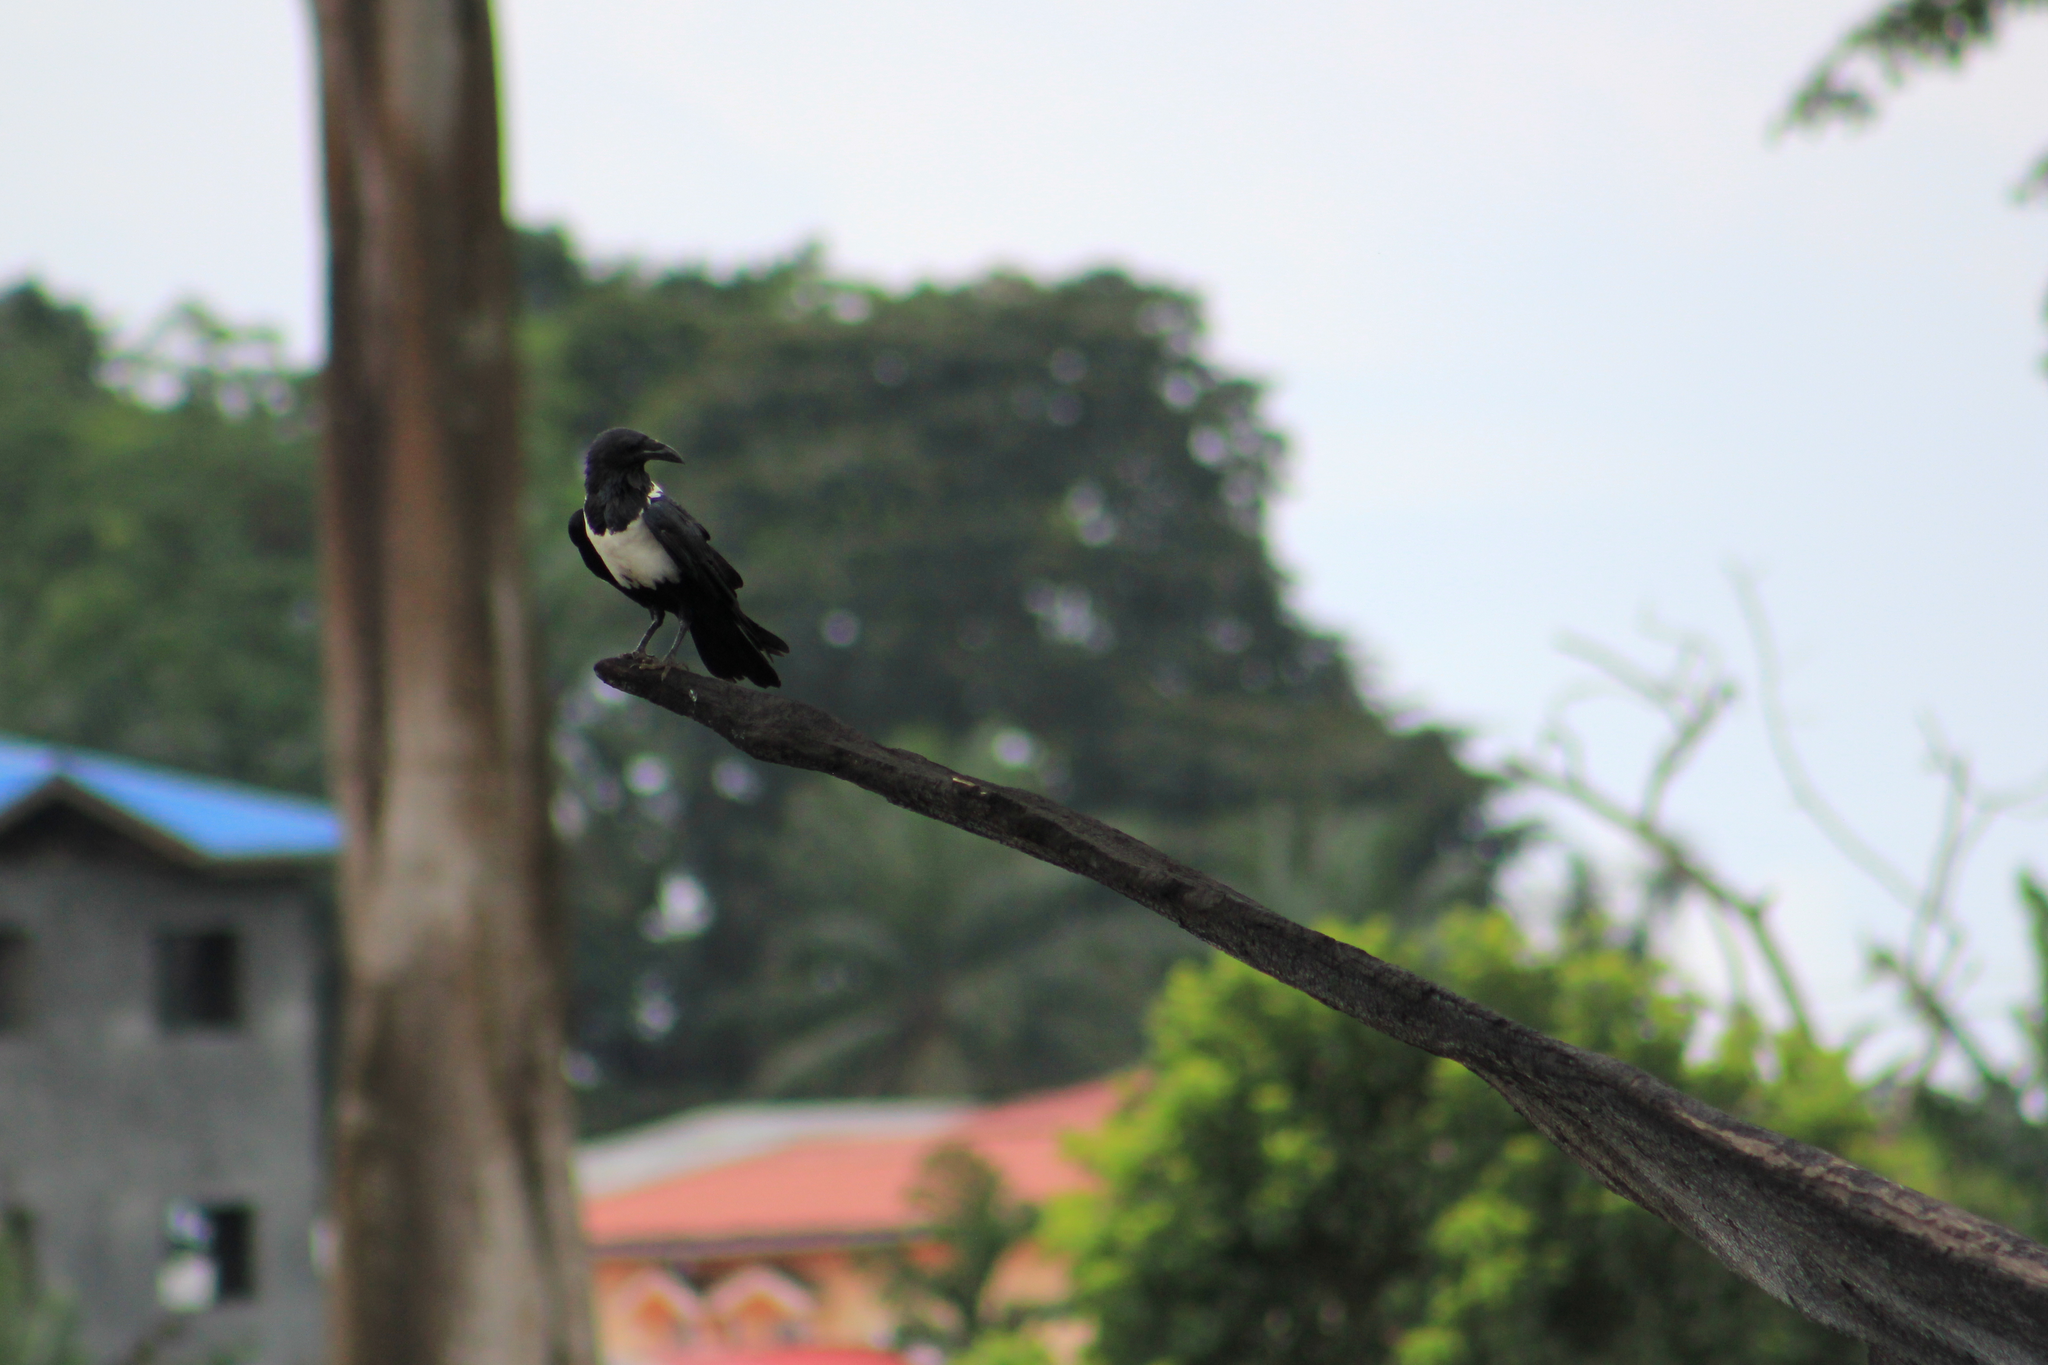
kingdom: Animalia
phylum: Chordata
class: Aves
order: Passeriformes
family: Corvidae
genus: Corvus
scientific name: Corvus albus
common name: Pied crow
